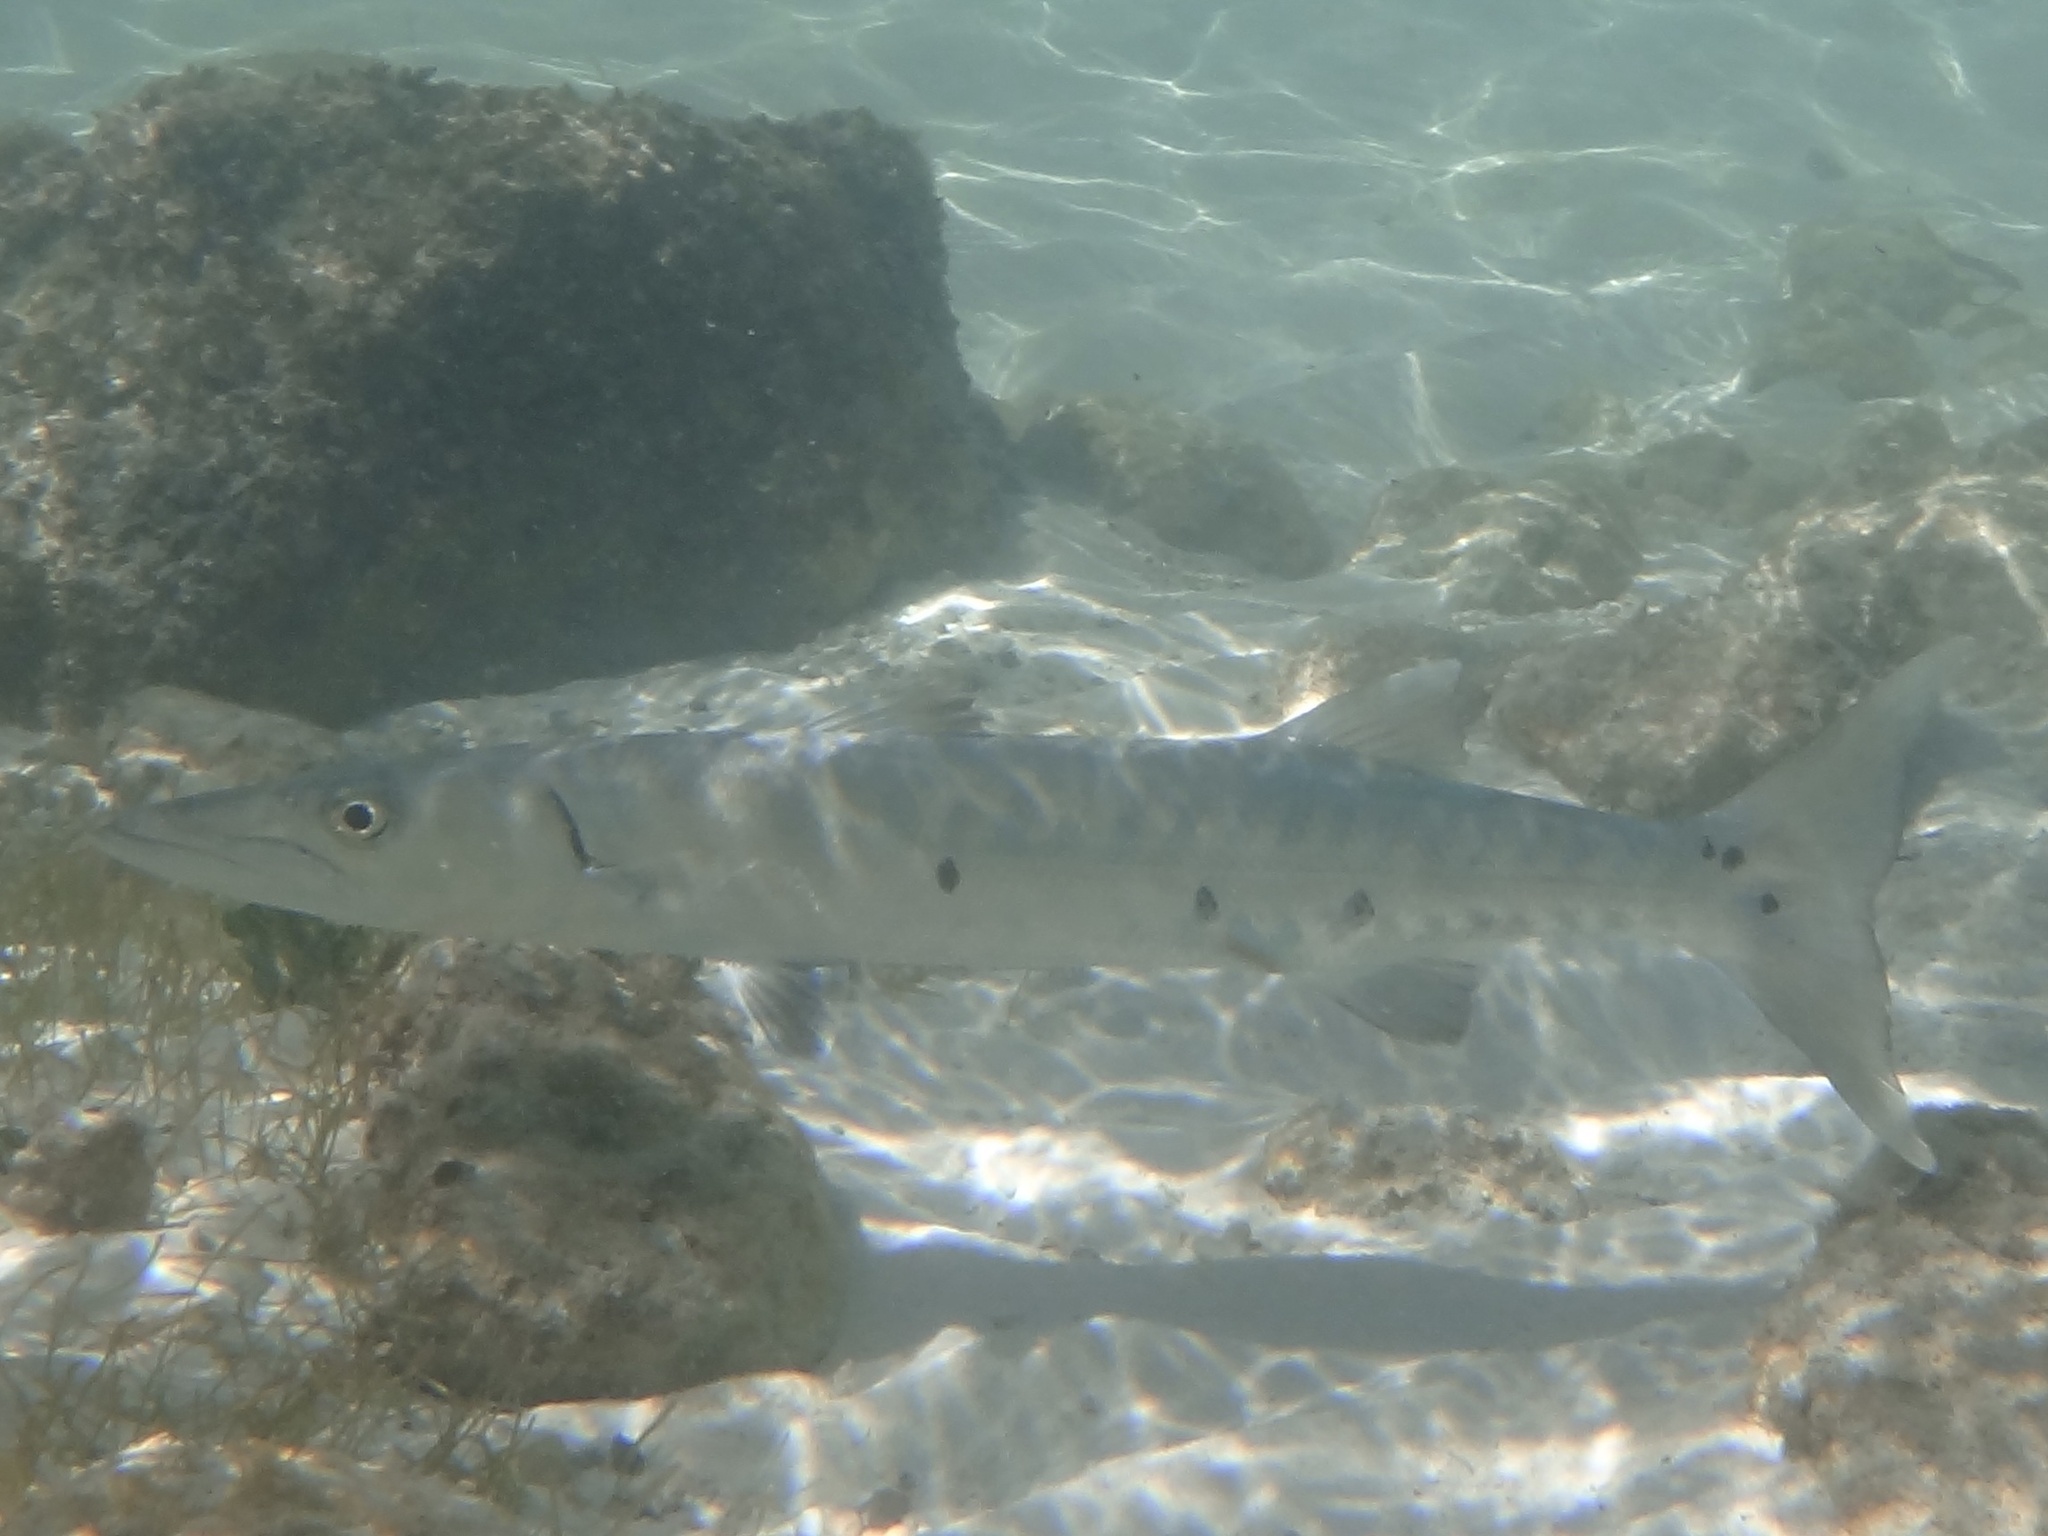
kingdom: Animalia
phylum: Chordata
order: Perciformes
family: Sphyraenidae
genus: Sphyraena
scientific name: Sphyraena barracuda
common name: Great barracuda
